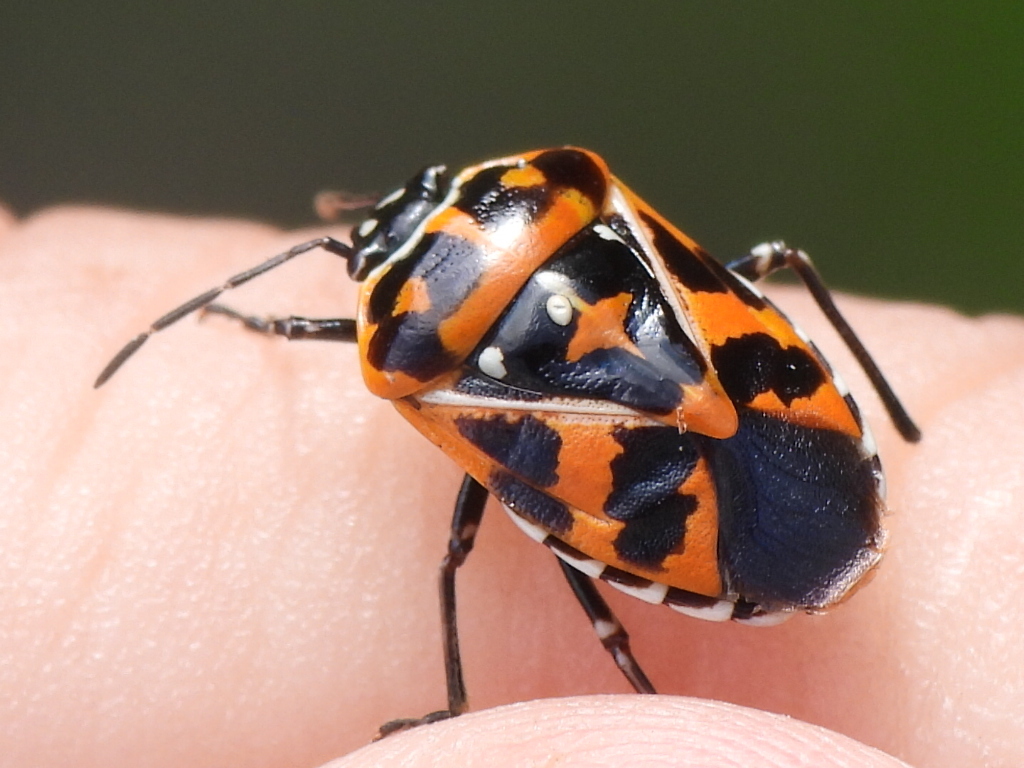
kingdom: Animalia
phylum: Arthropoda
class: Insecta
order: Hemiptera
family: Pentatomidae
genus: Murgantia
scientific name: Murgantia histrionica
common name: Harlequin bug
